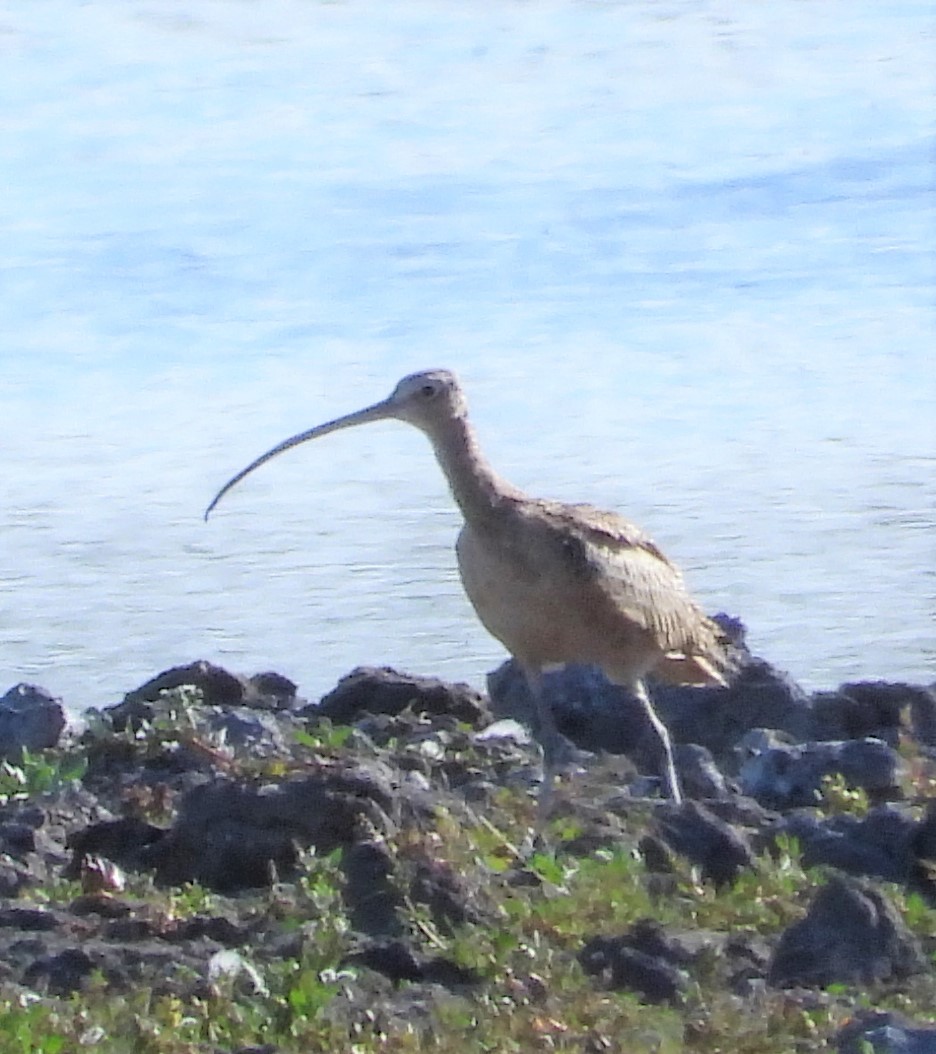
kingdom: Animalia
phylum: Chordata
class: Aves
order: Charadriiformes
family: Scolopacidae
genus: Numenius
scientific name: Numenius americanus
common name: Long-billed curlew
